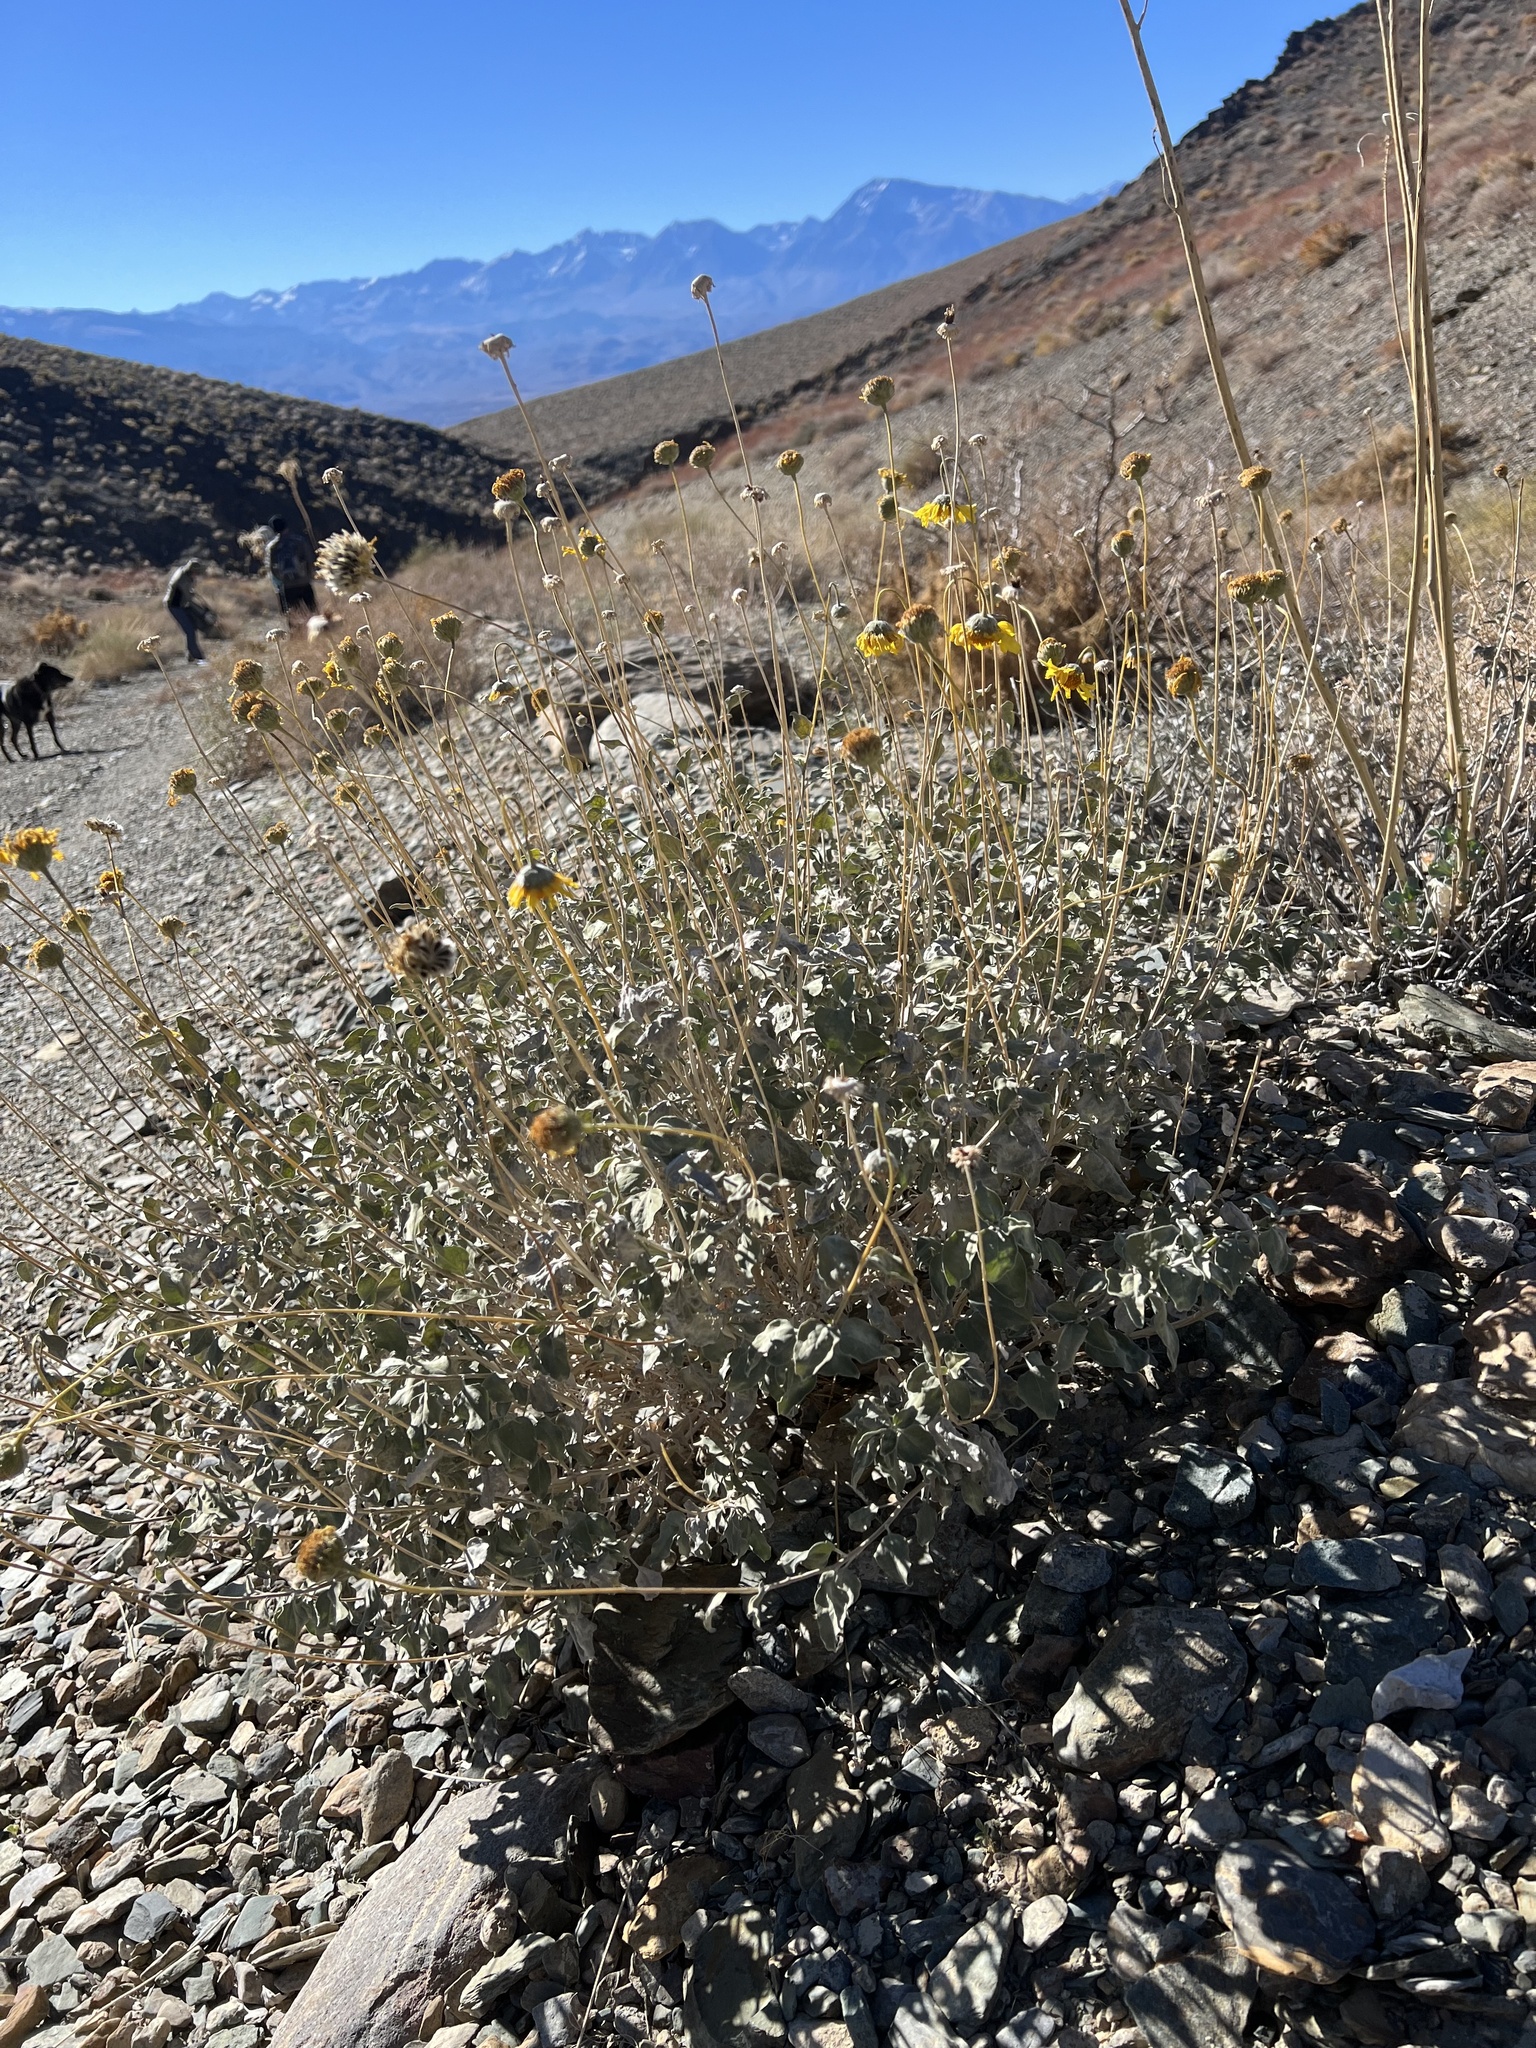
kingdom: Plantae
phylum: Tracheophyta
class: Magnoliopsida
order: Asterales
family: Asteraceae
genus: Encelia
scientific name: Encelia actoni
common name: Acton encelia
